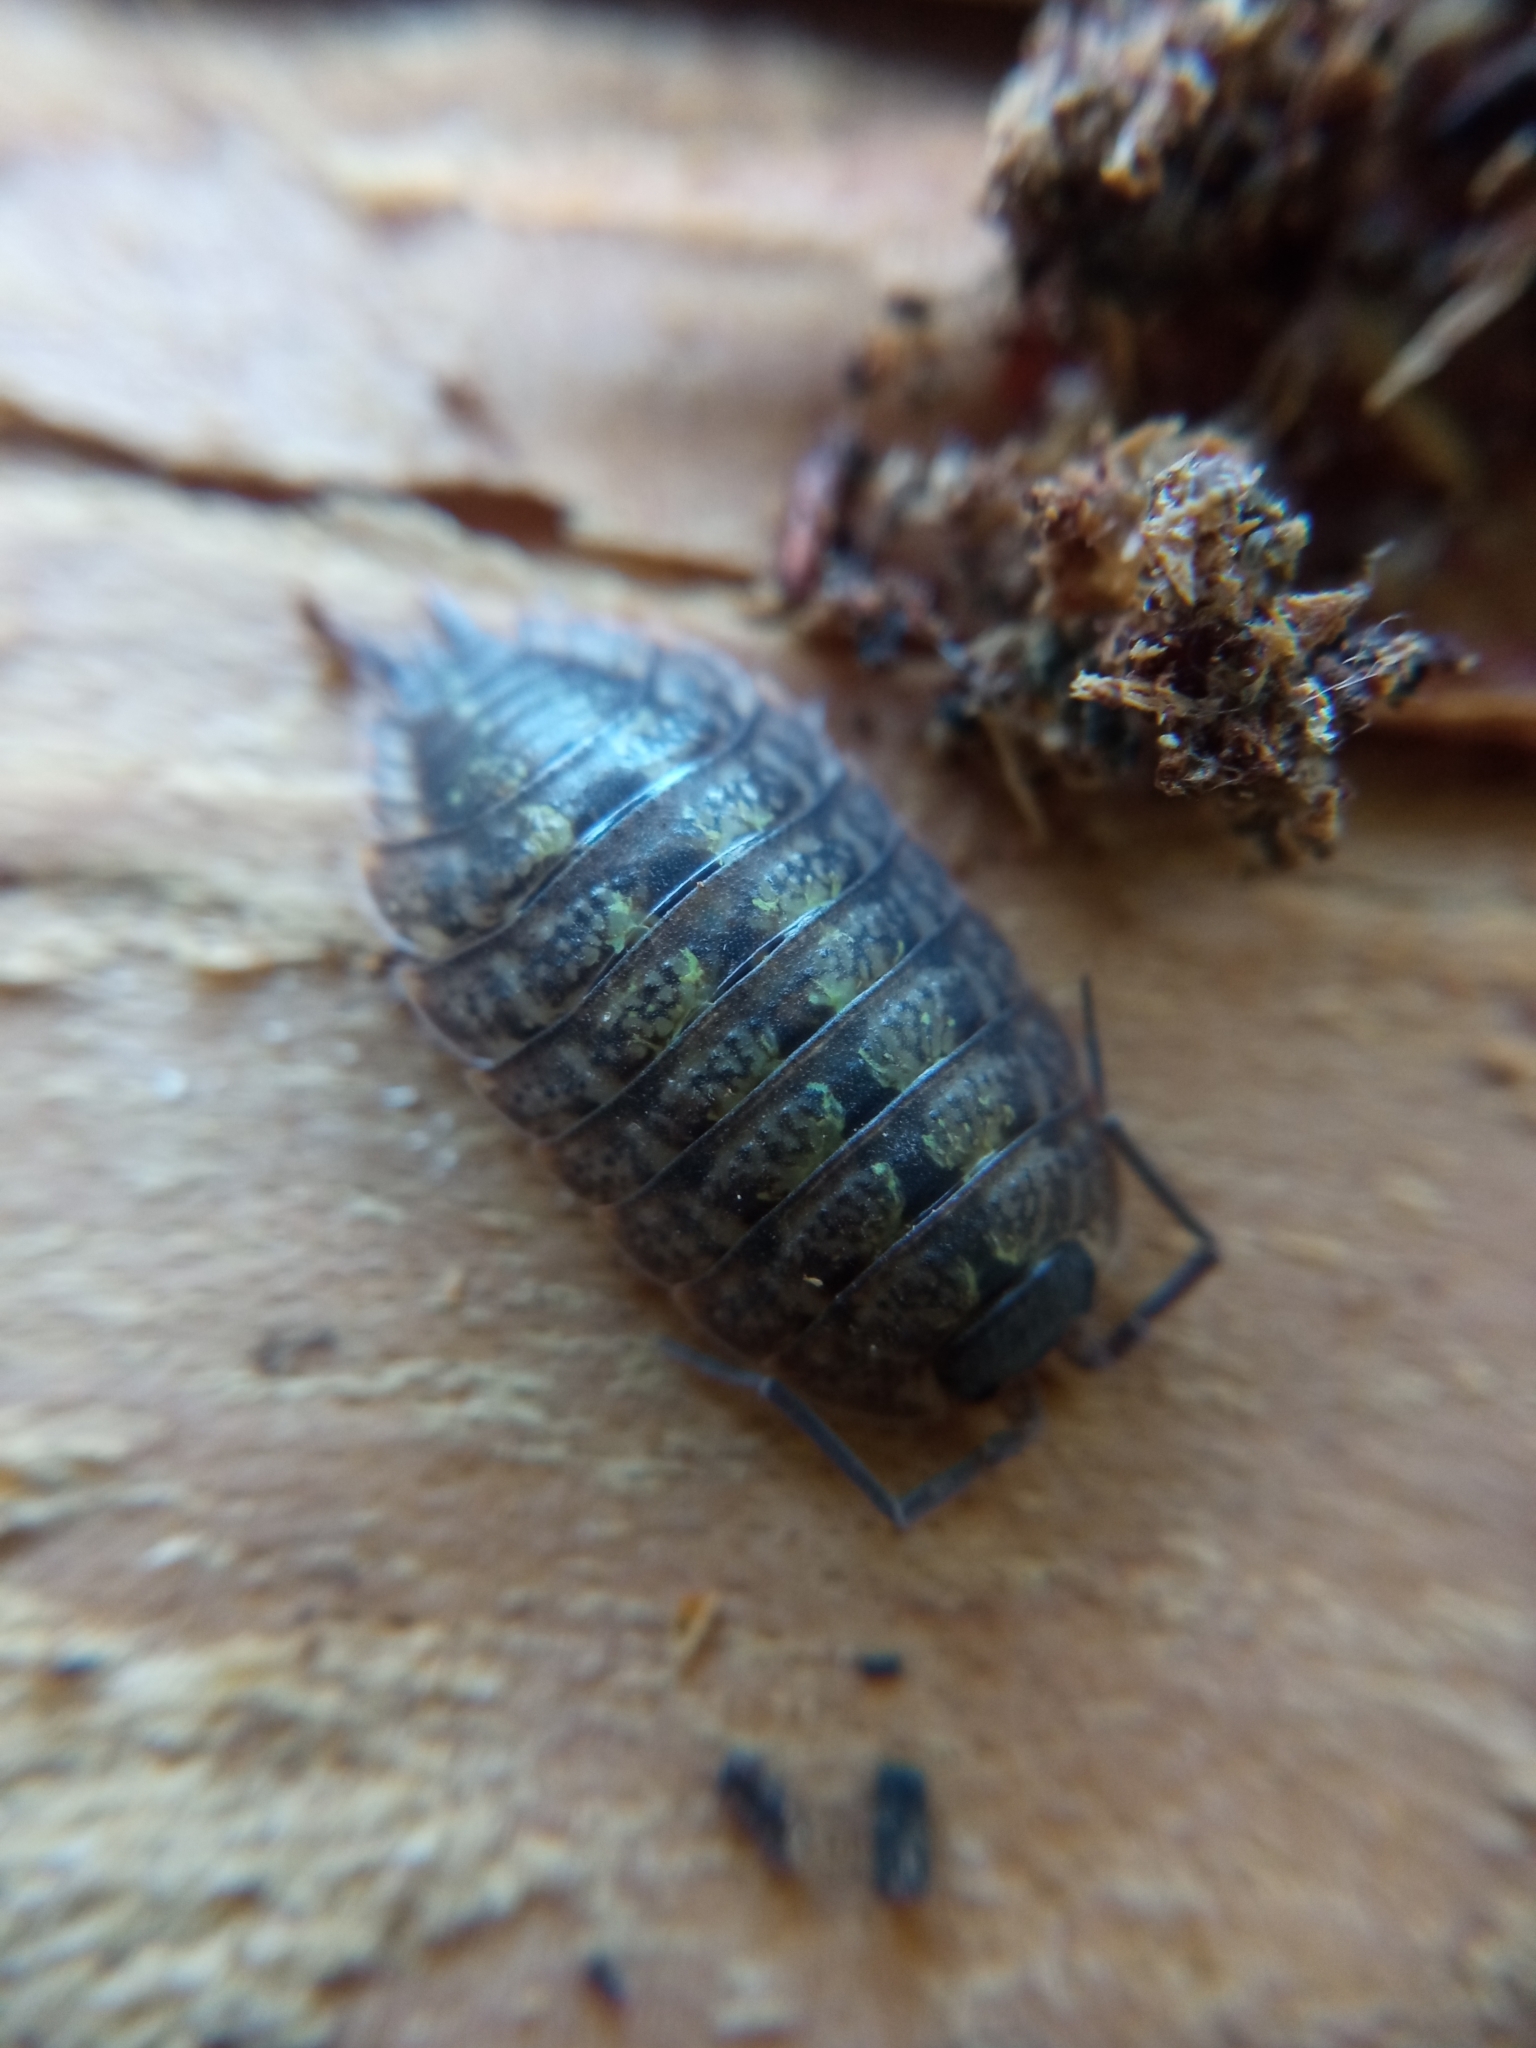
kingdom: Animalia
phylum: Arthropoda
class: Malacostraca
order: Isopoda
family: Porcellionidae
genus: Porcellio
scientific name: Porcellio monticola
